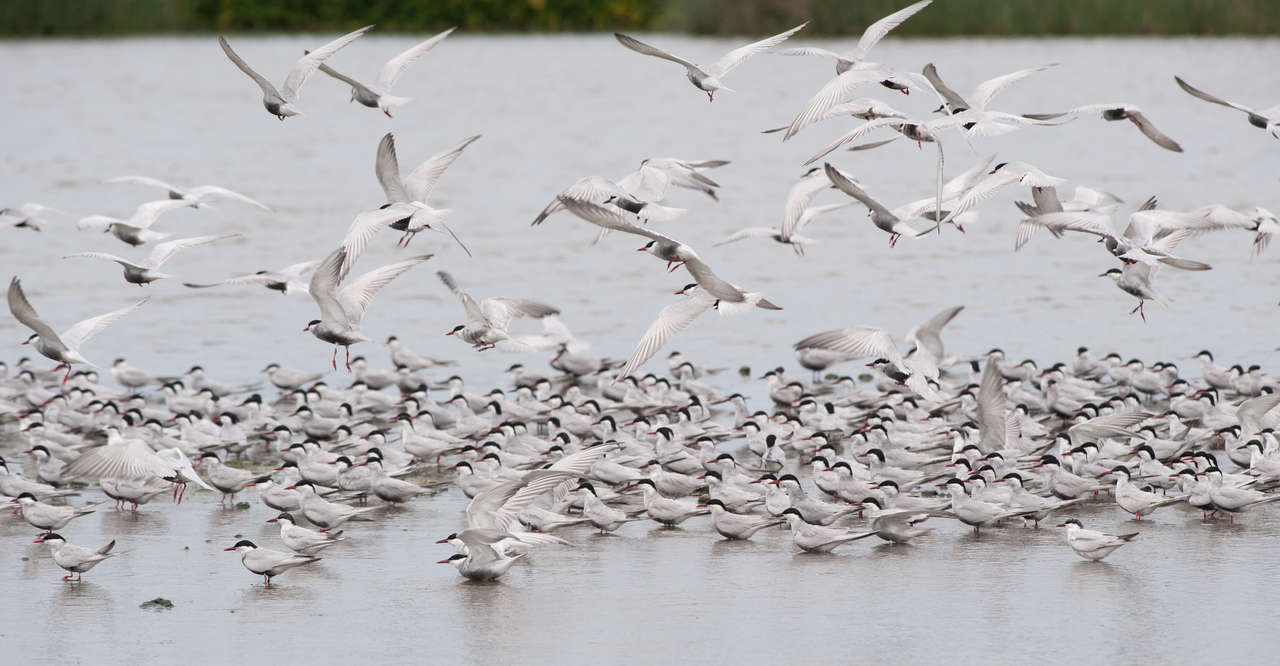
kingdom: Animalia
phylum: Chordata
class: Aves
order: Charadriiformes
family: Laridae
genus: Chlidonias
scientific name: Chlidonias hybrida
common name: Whiskered tern
